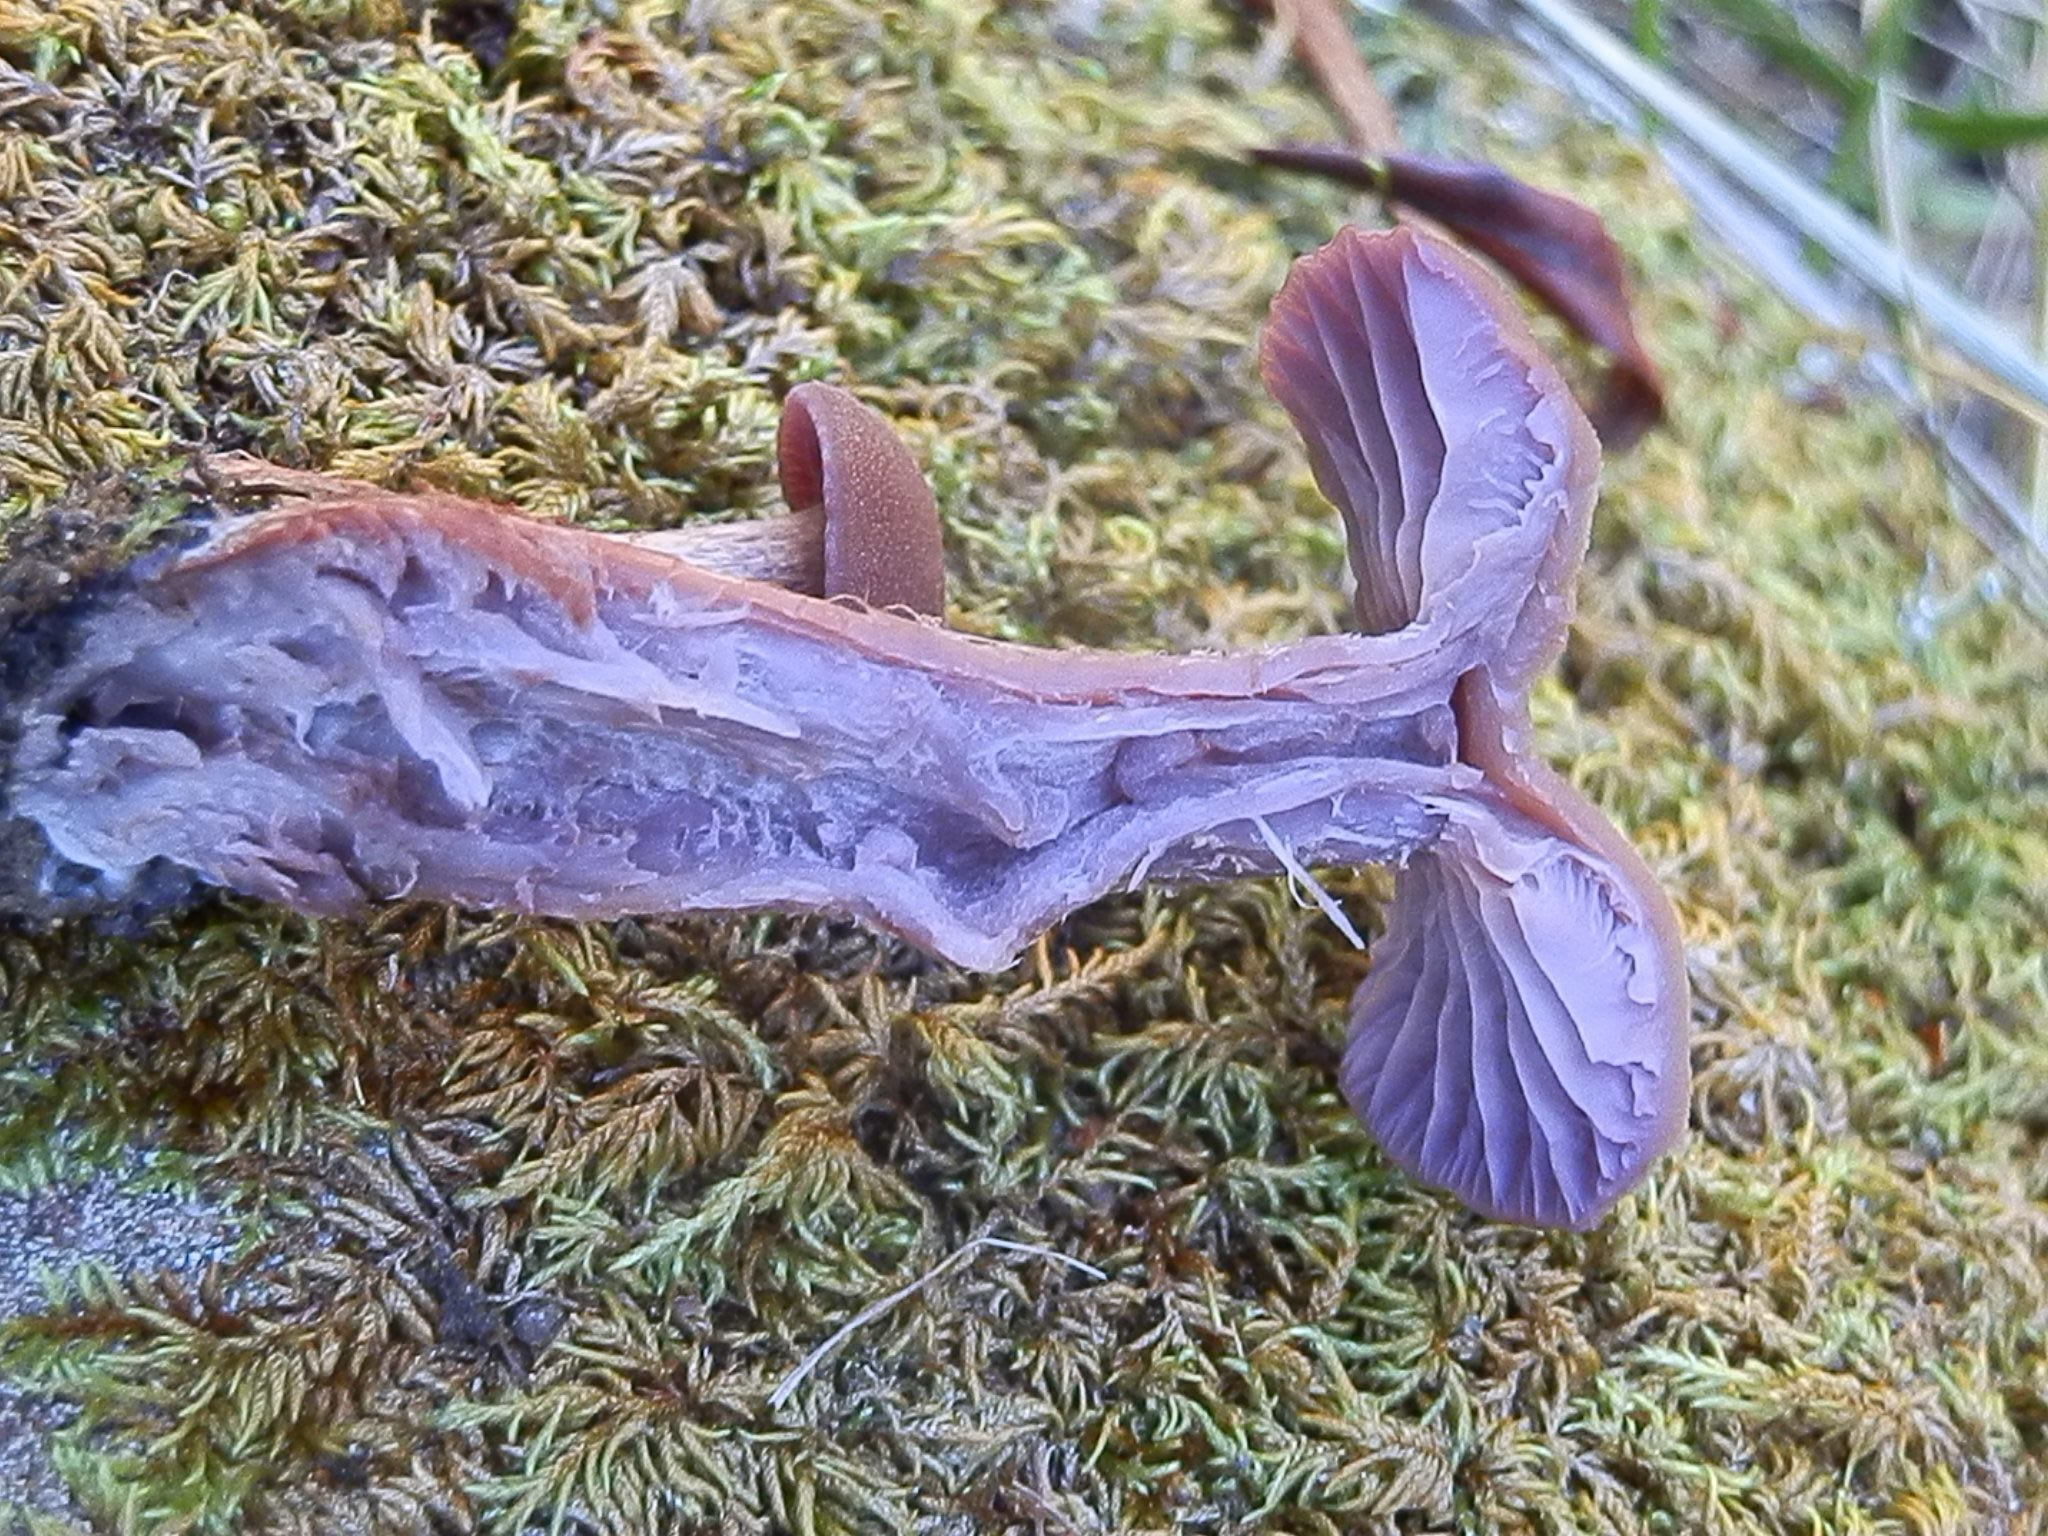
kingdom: Fungi
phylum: Basidiomycota
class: Agaricomycetes
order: Agaricales
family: Hydnangiaceae
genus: Laccaria
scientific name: Laccaria amethysteo-occidentalis
